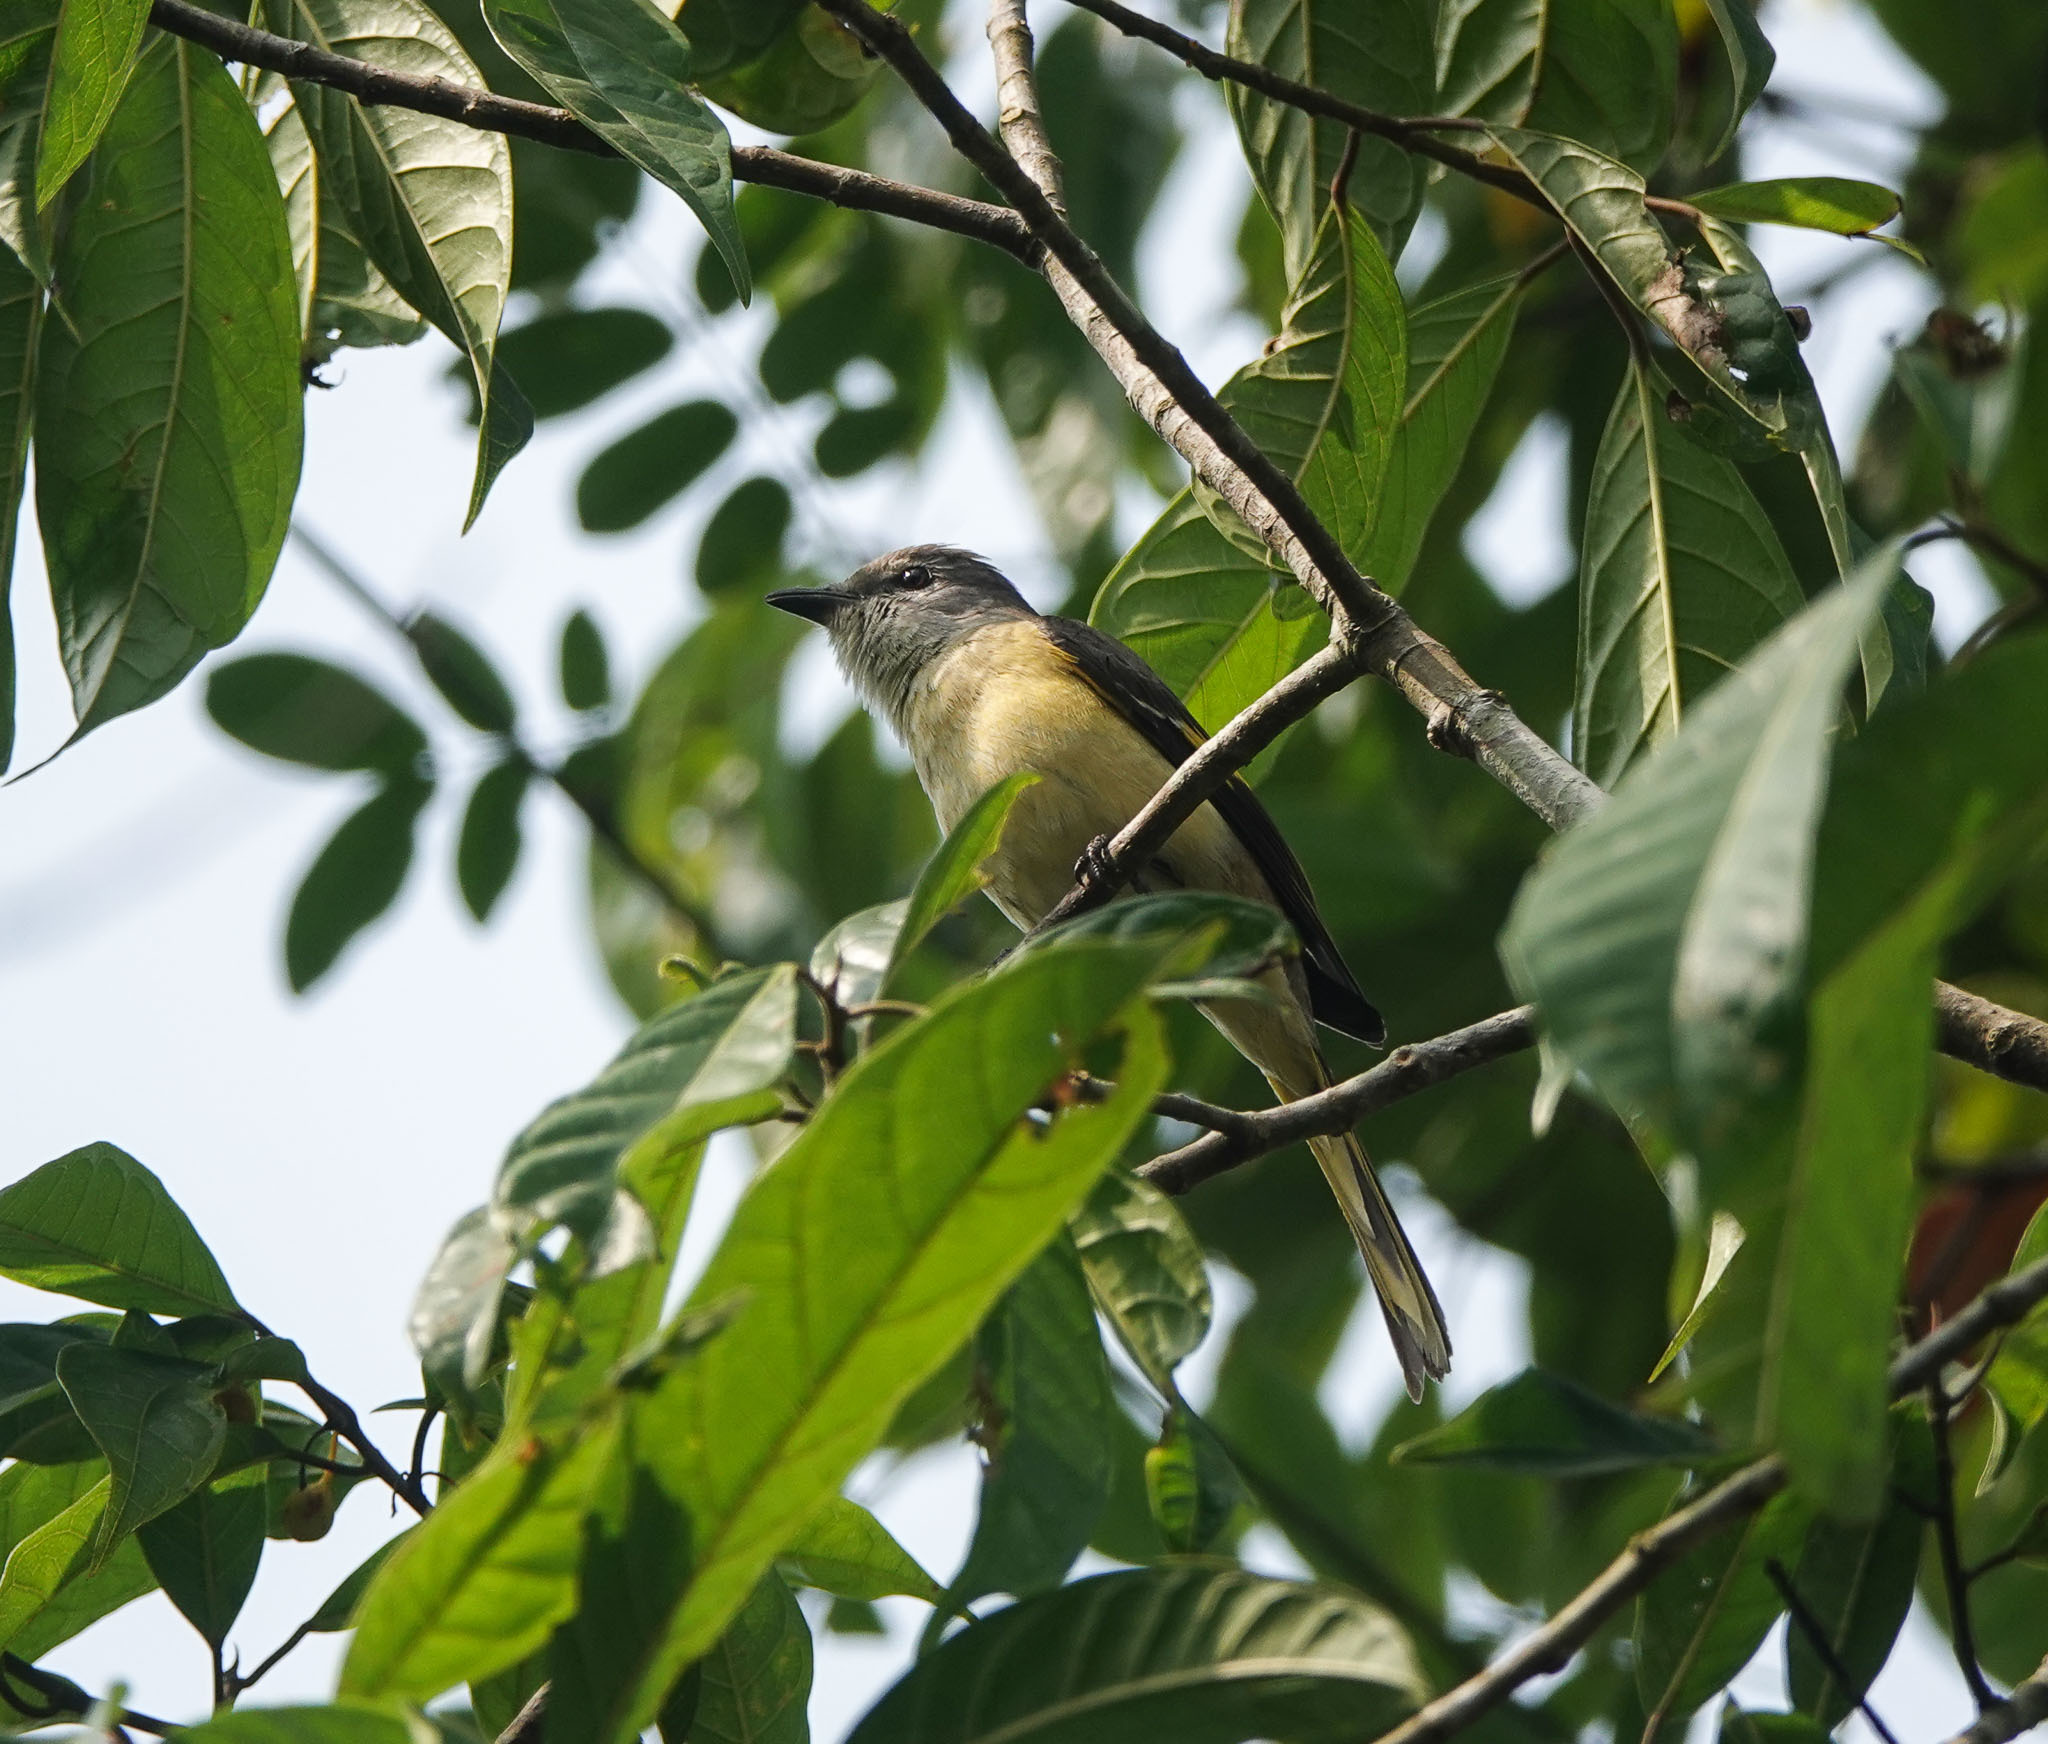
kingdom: Animalia
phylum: Chordata
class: Aves
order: Passeriformes
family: Campephagidae
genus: Pericrocotus
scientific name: Pericrocotus roseus
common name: Rosy minivet
